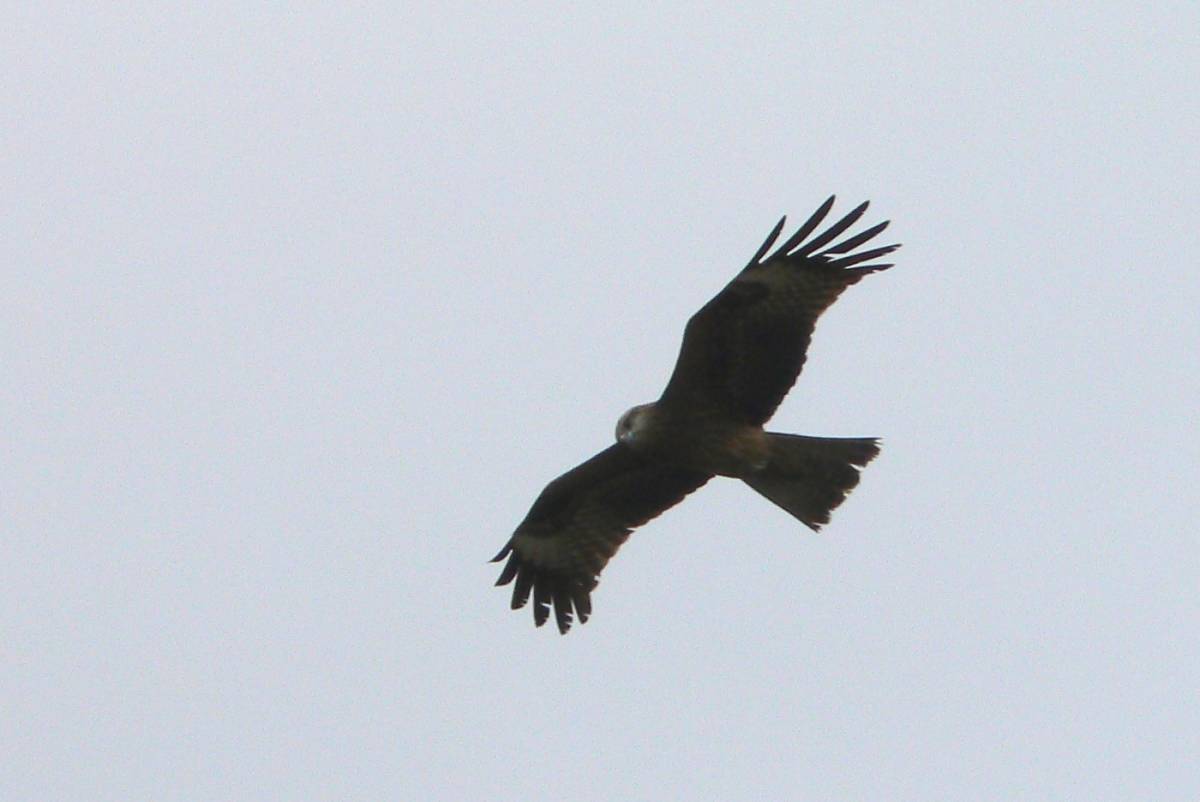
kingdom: Animalia
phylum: Chordata
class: Aves
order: Accipitriformes
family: Accipitridae
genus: Milvus
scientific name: Milvus migrans
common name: Black kite
